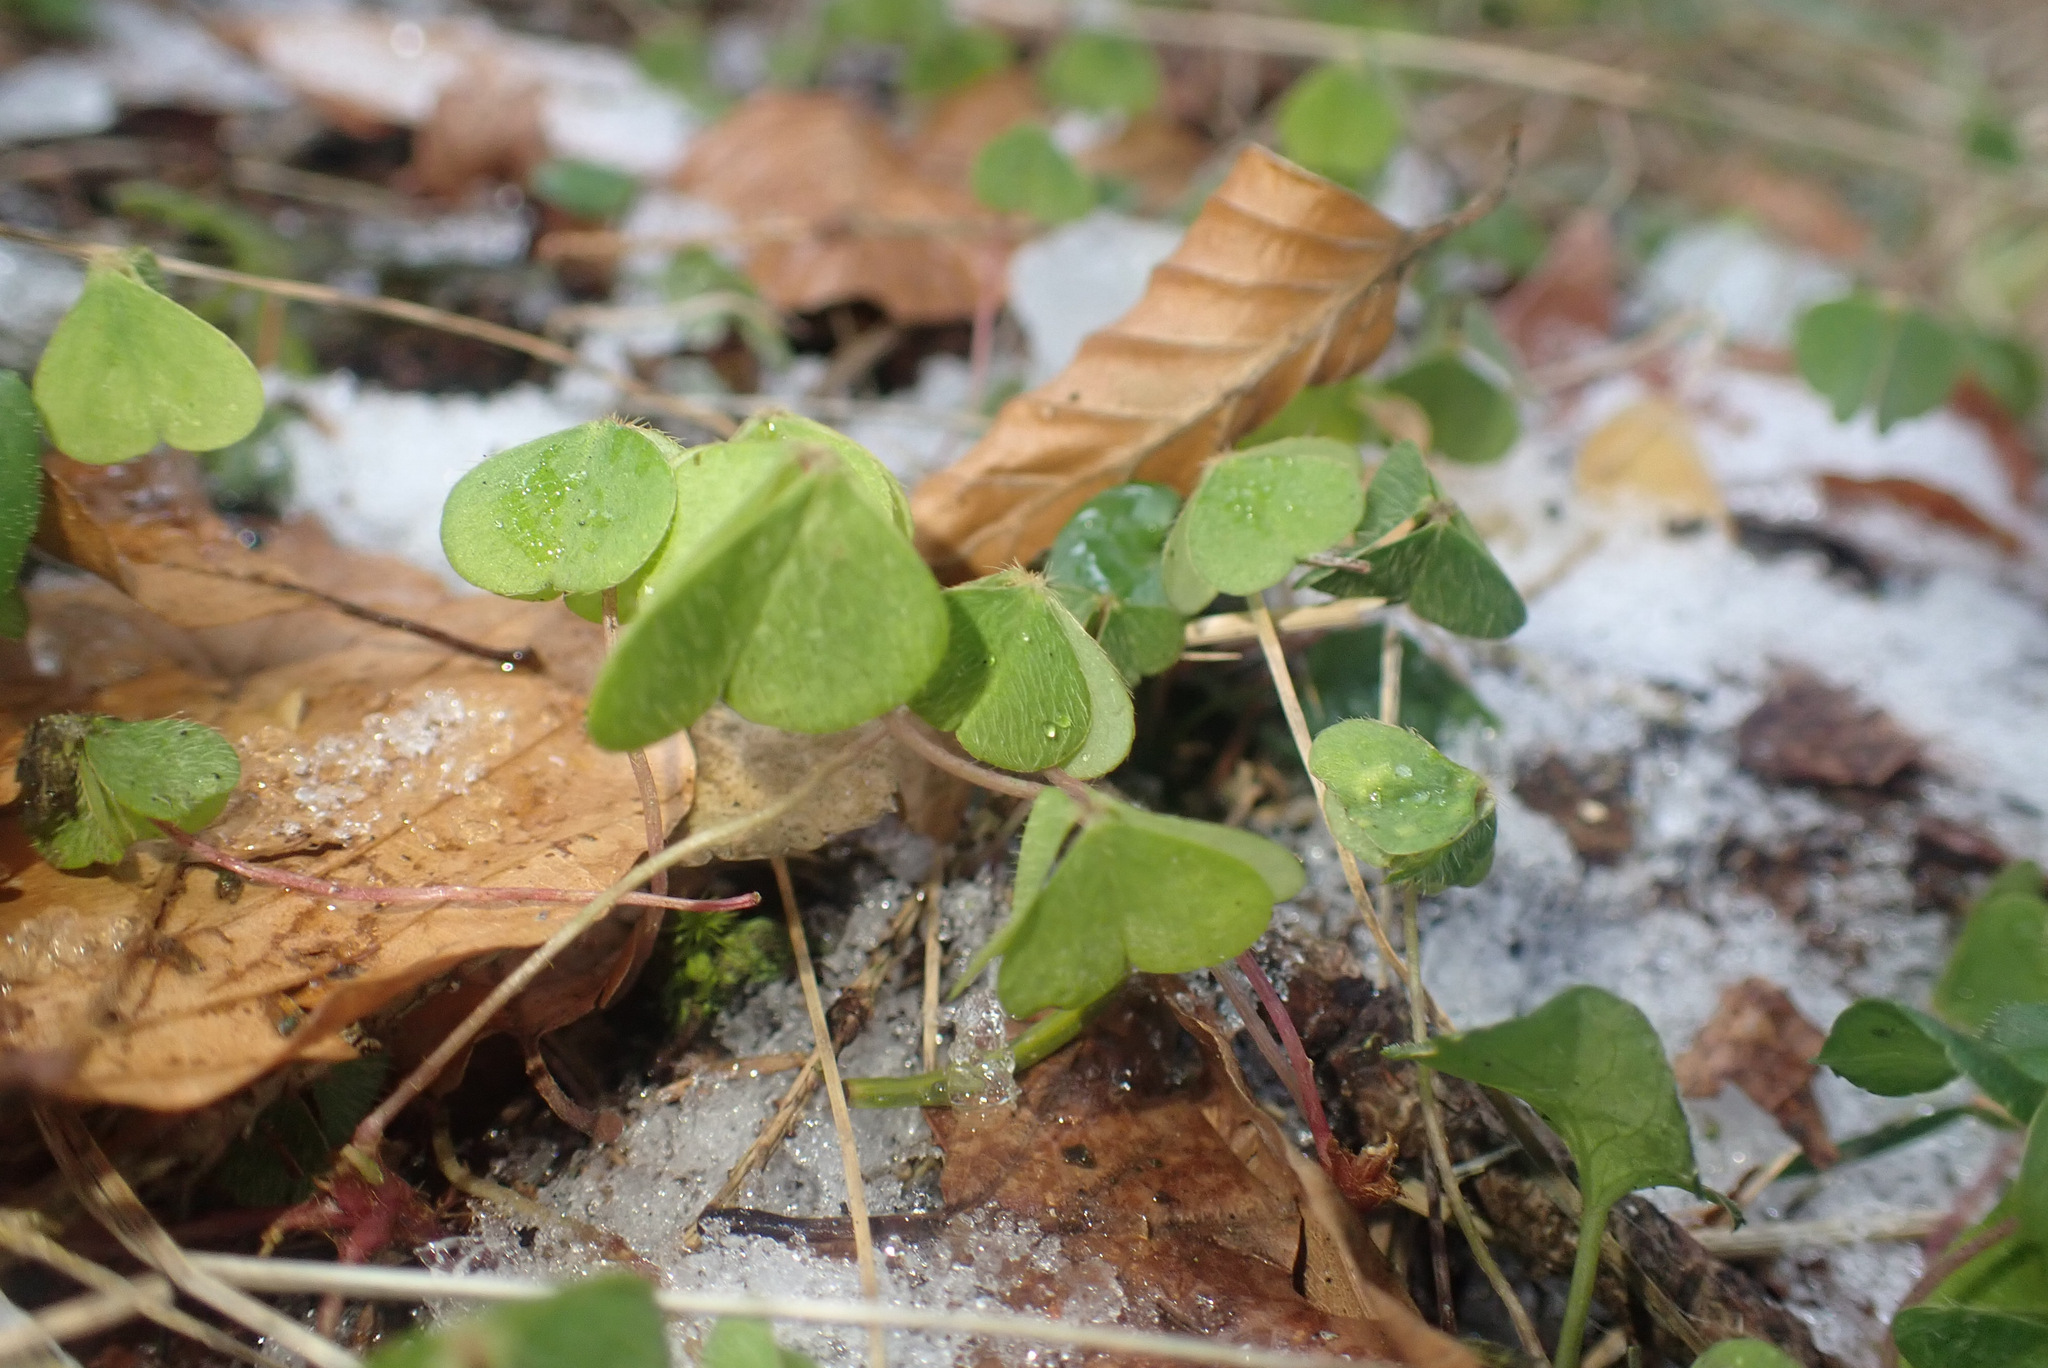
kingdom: Plantae
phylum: Tracheophyta
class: Magnoliopsida
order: Oxalidales
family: Oxalidaceae
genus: Oxalis
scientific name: Oxalis acetosella
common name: Wood-sorrel
